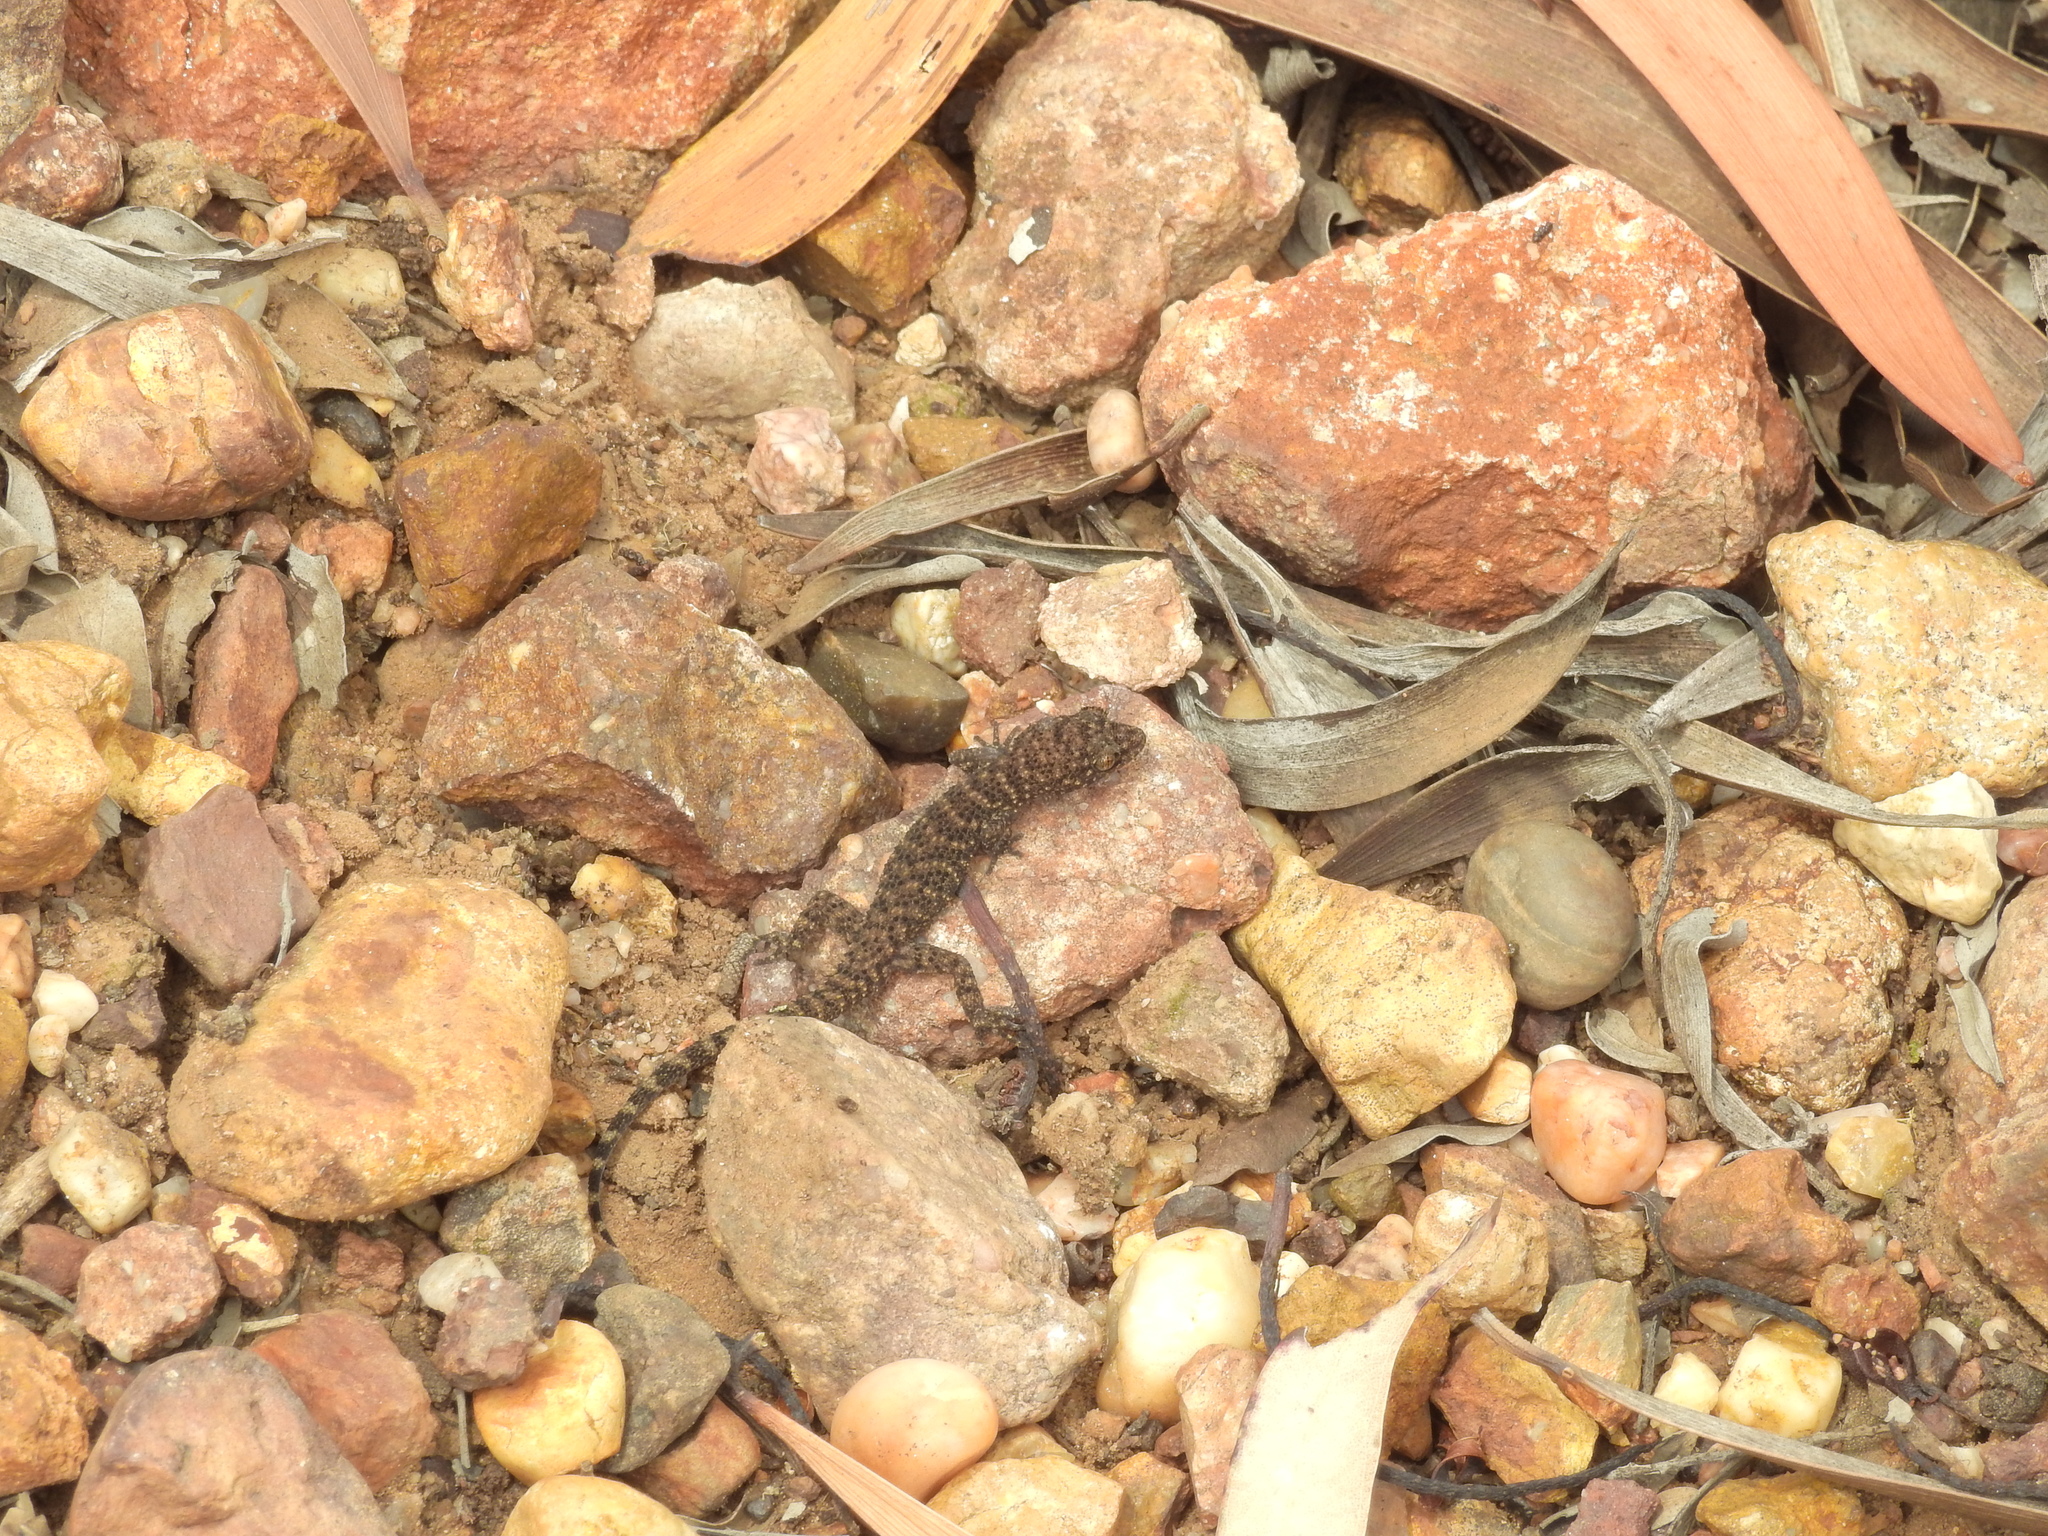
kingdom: Animalia
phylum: Chordata
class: Squamata
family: Gekkonidae
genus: Heteronotia
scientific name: Heteronotia binoei
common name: Bynoe's gecko
